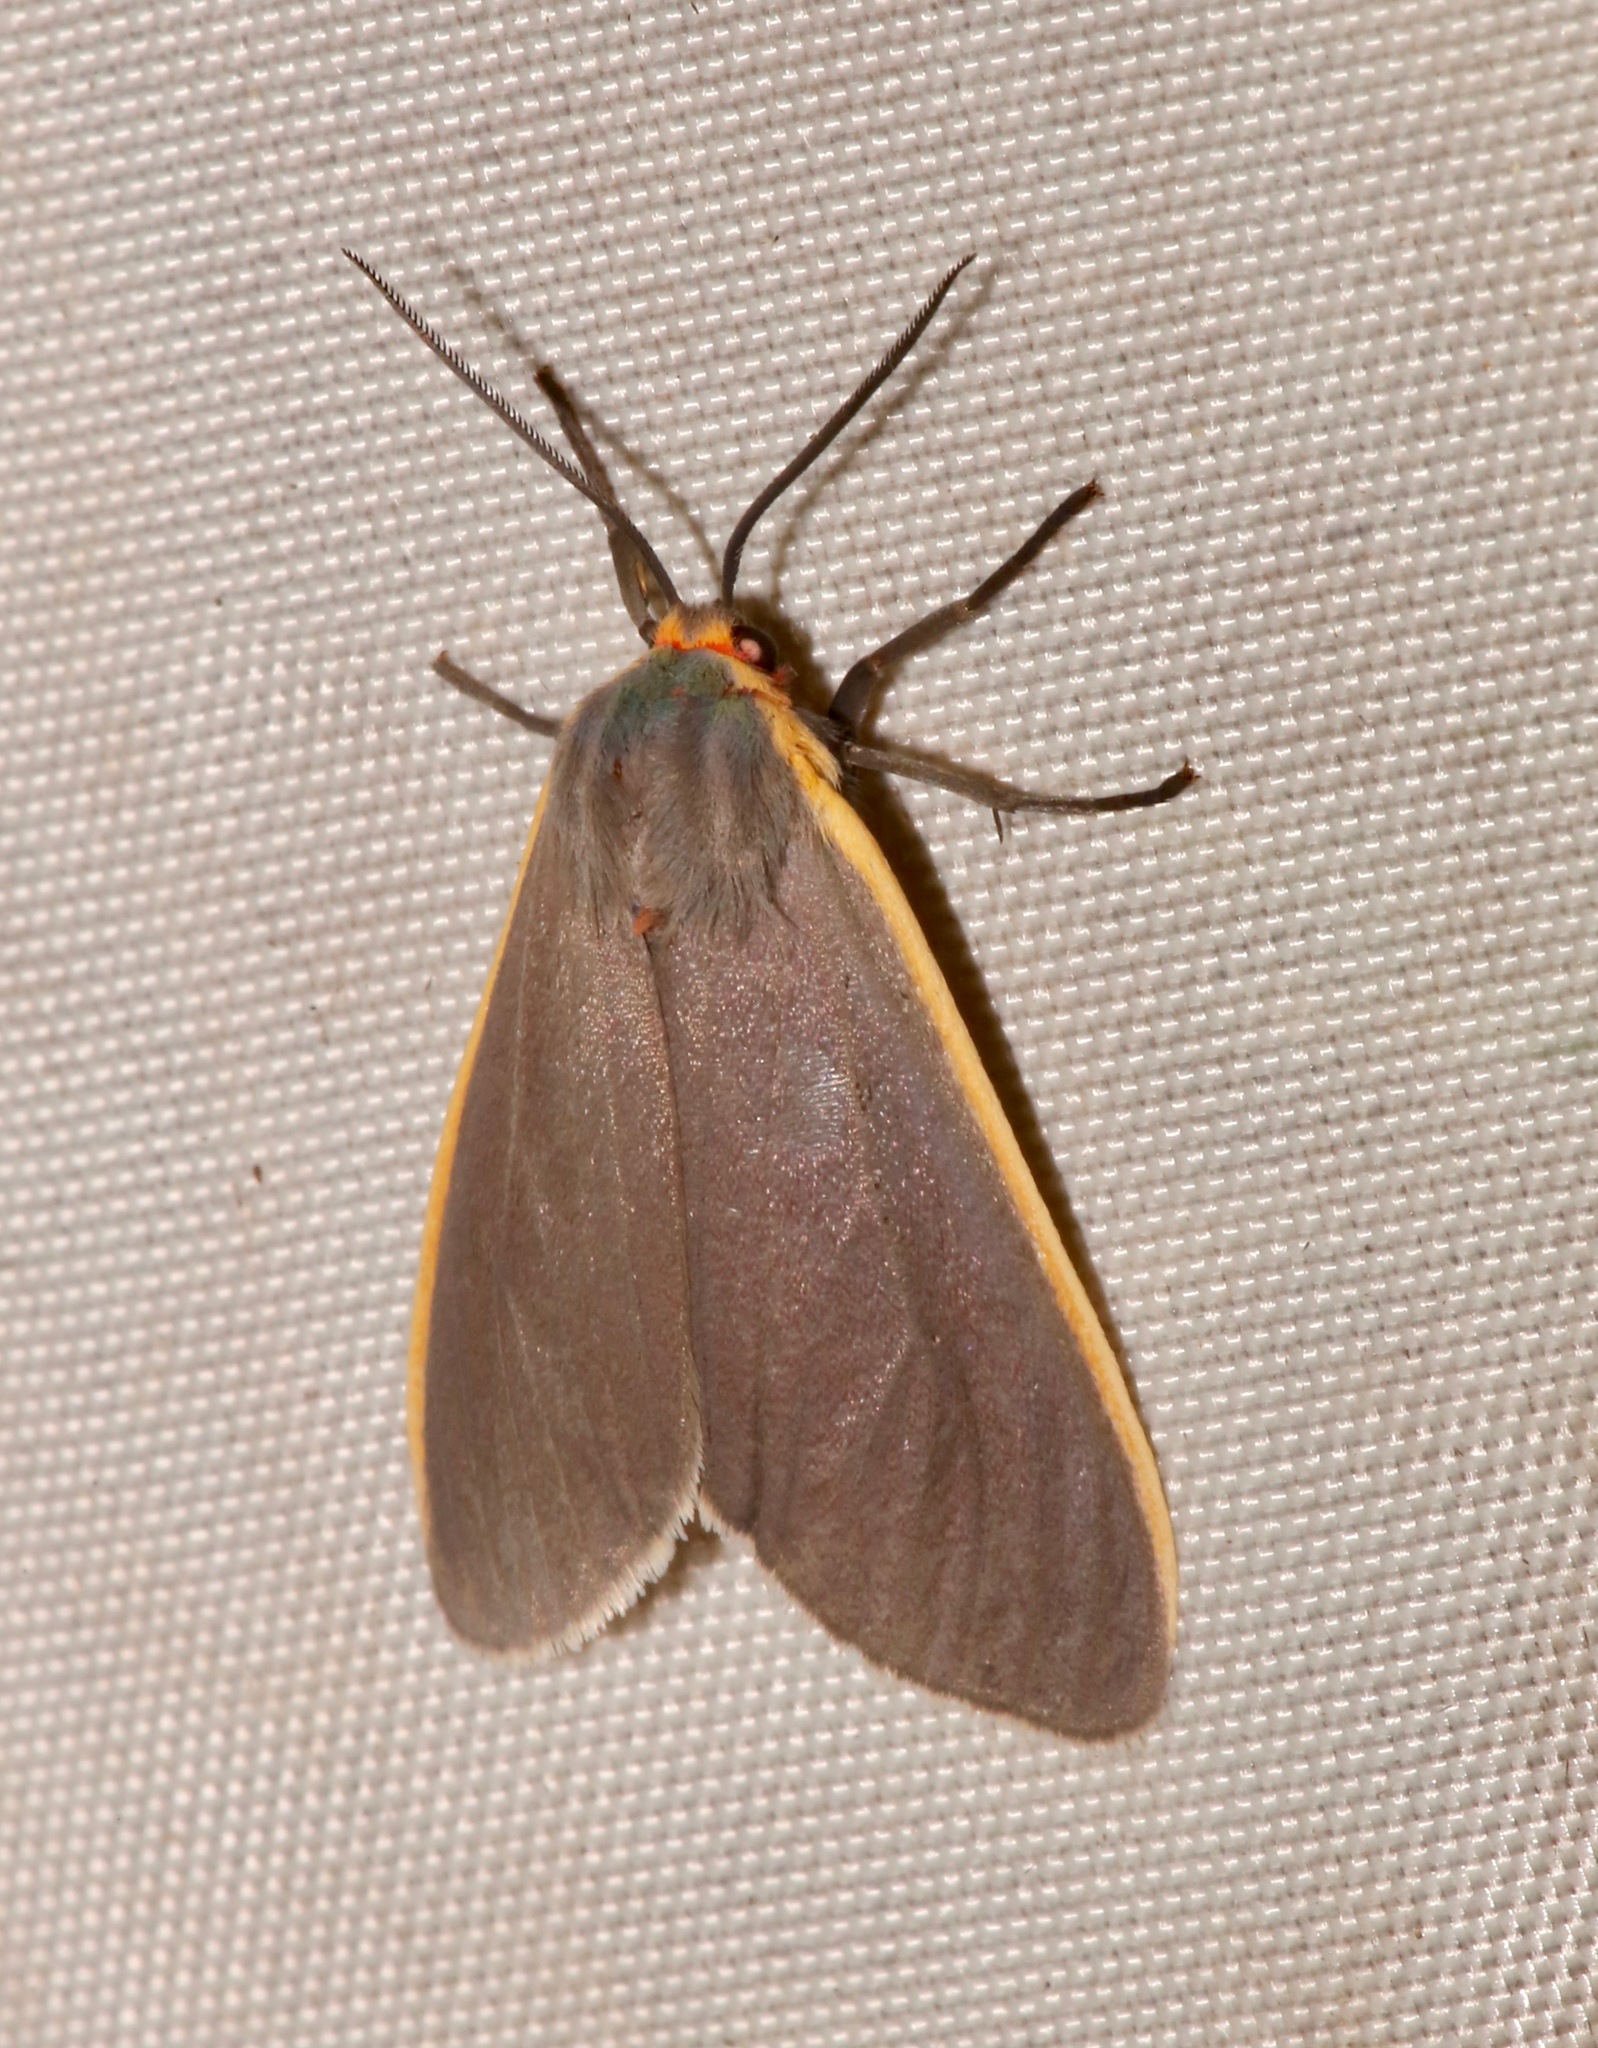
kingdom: Animalia
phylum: Arthropoda
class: Insecta
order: Lepidoptera
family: Erebidae
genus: Euchaetes
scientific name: Euchaetes antica
